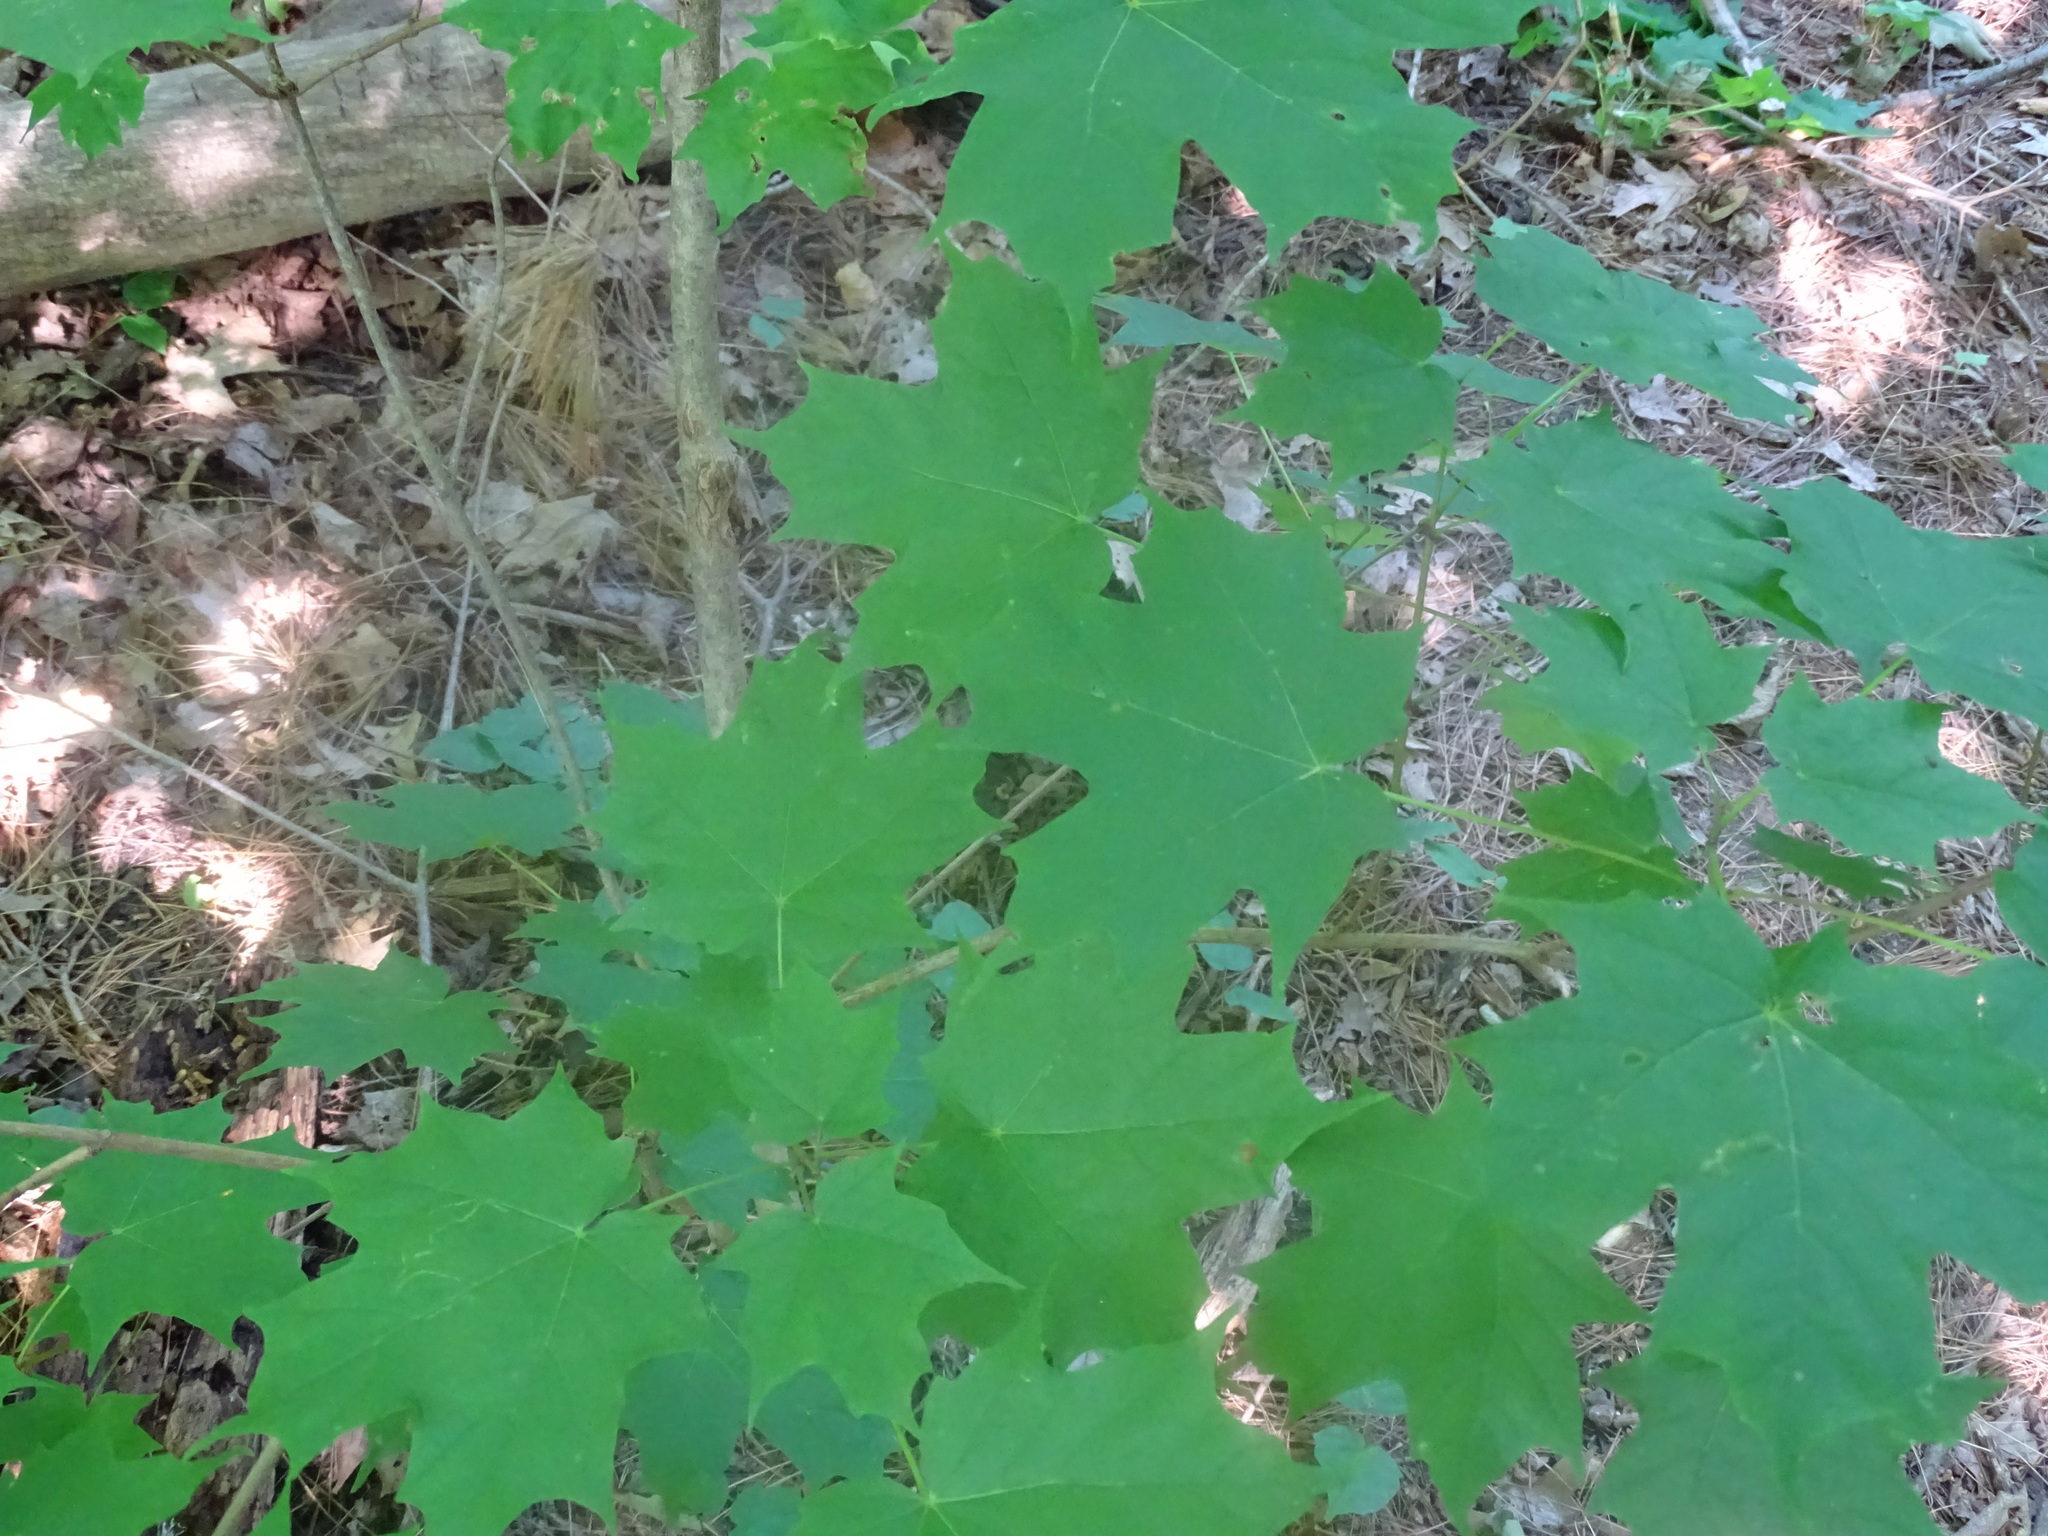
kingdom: Plantae
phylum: Tracheophyta
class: Magnoliopsida
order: Sapindales
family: Sapindaceae
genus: Acer
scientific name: Acer saccharum
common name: Sugar maple
